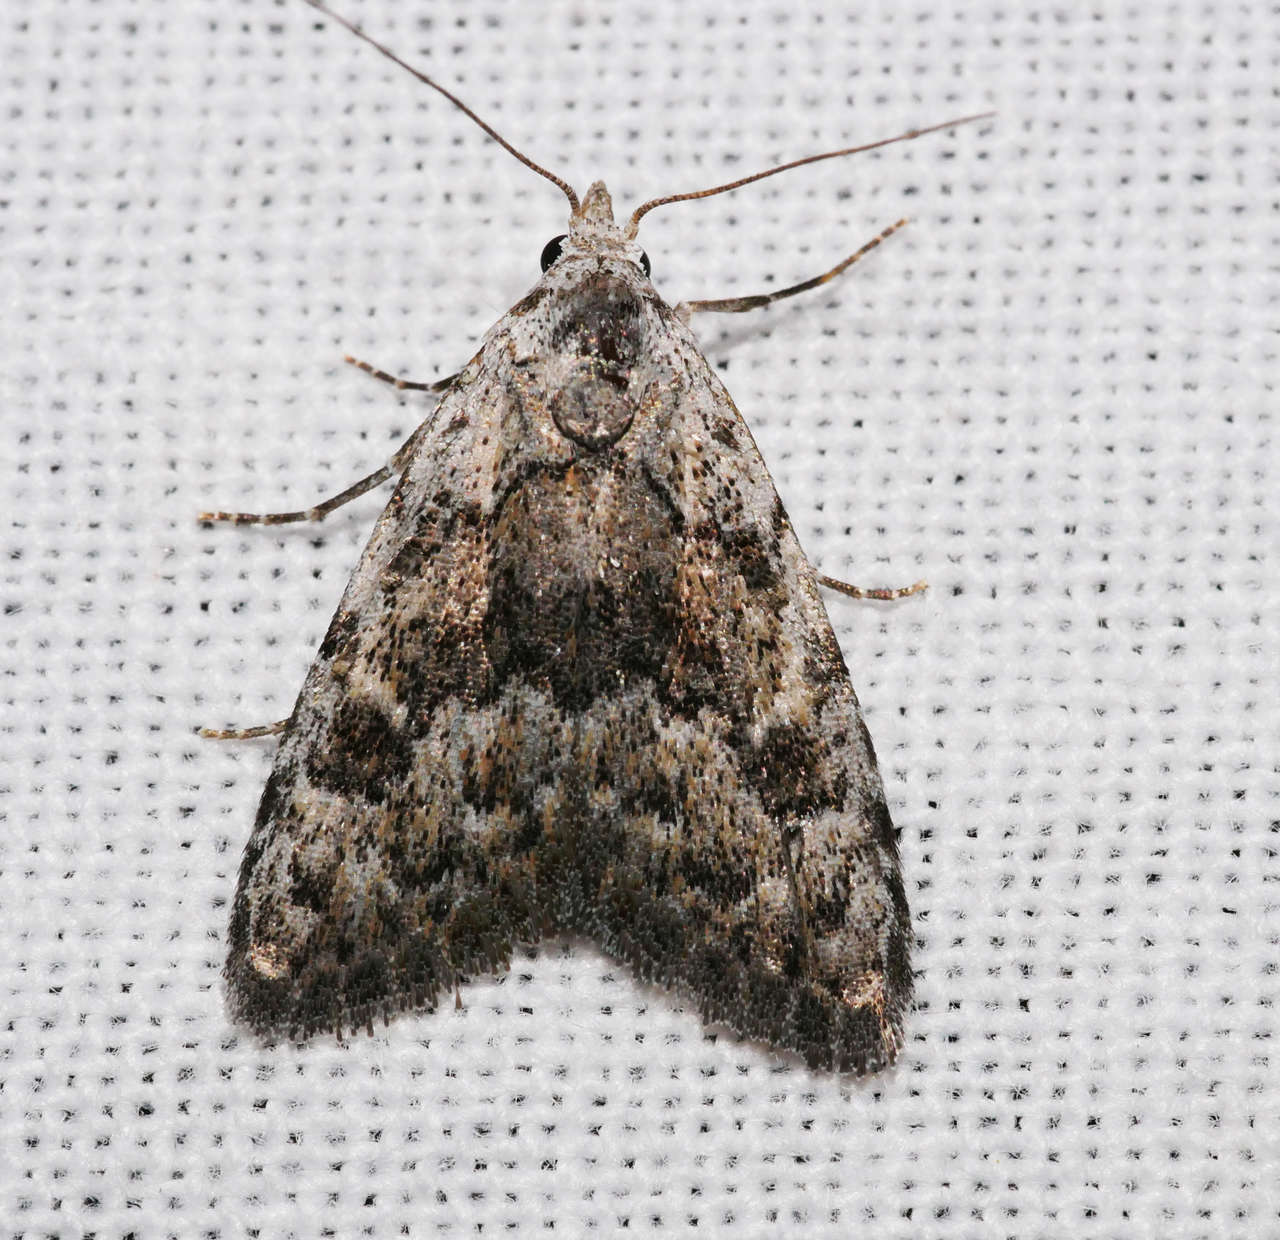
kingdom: Animalia
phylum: Arthropoda
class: Insecta
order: Lepidoptera
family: Nolidae
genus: Nola
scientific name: Nola pothina
